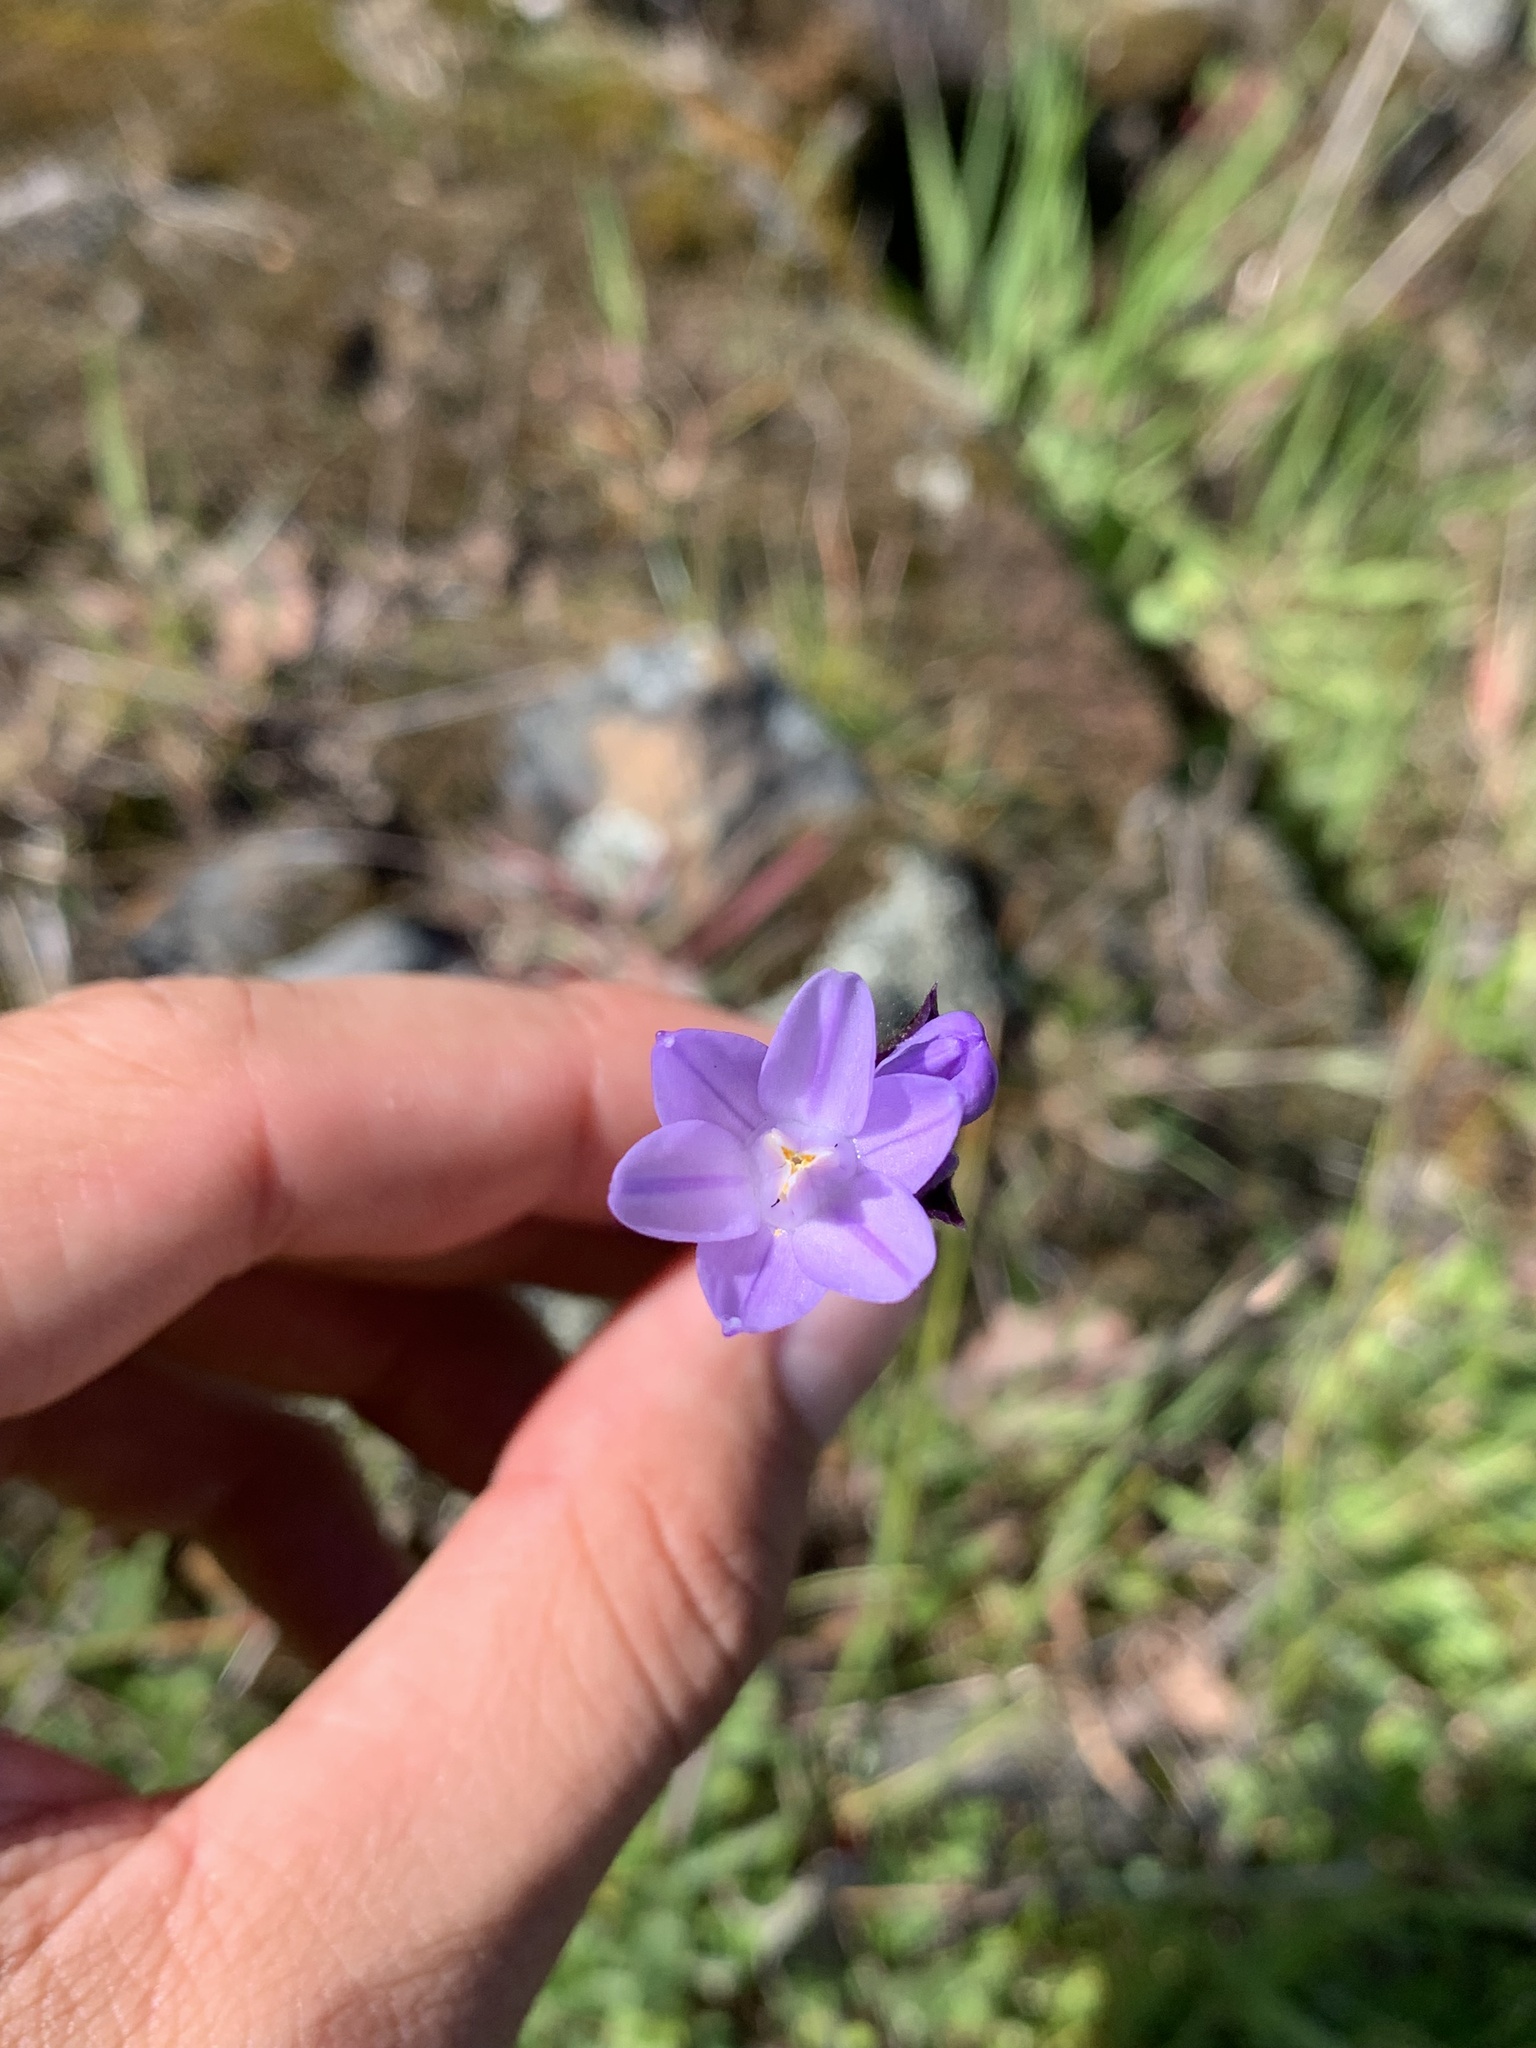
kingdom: Plantae
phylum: Tracheophyta
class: Liliopsida
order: Asparagales
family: Asparagaceae
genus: Dipterostemon
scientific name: Dipterostemon capitatus
